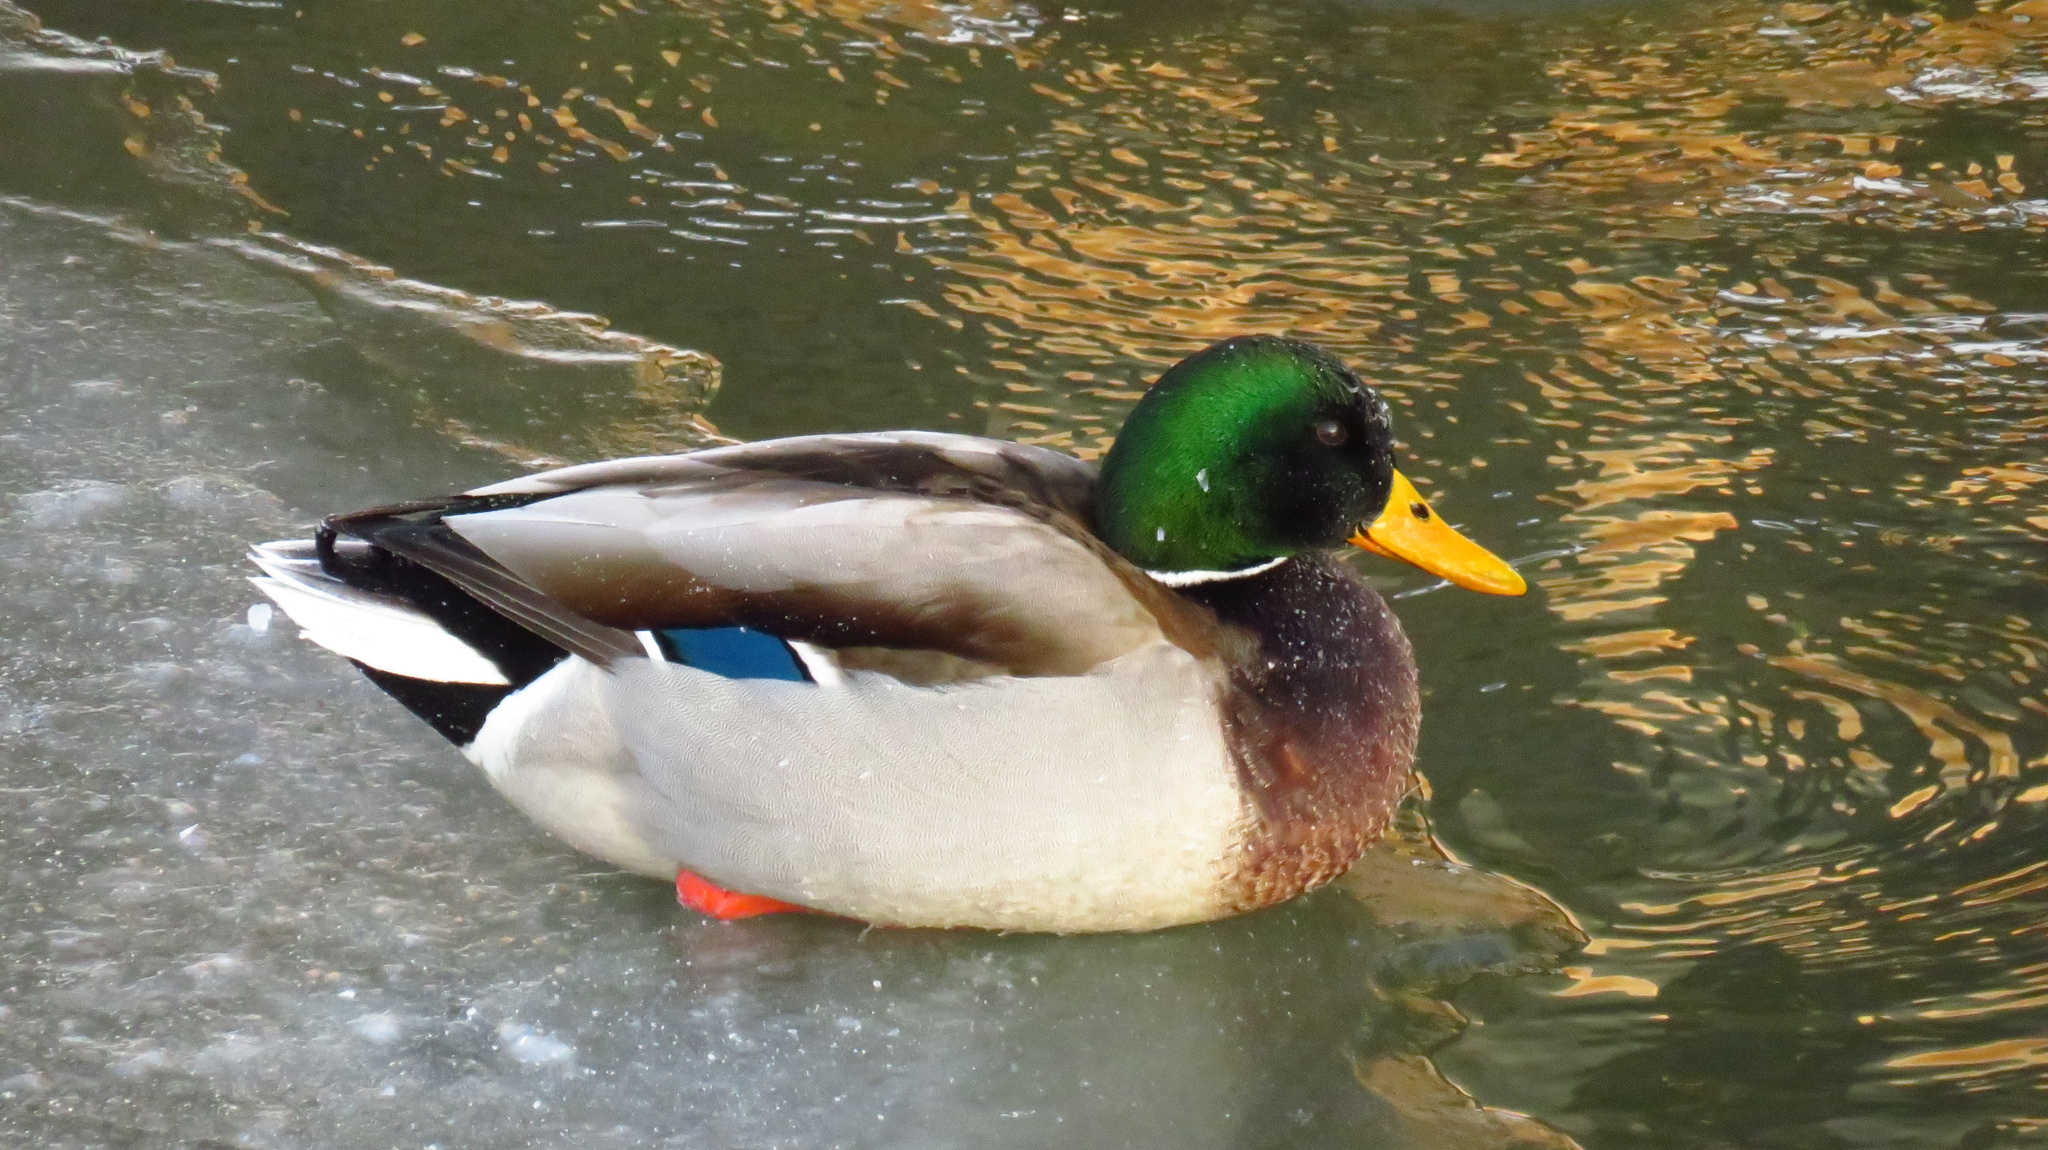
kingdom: Animalia
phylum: Chordata
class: Aves
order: Anseriformes
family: Anatidae
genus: Anas
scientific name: Anas platyrhynchos
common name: Mallard
